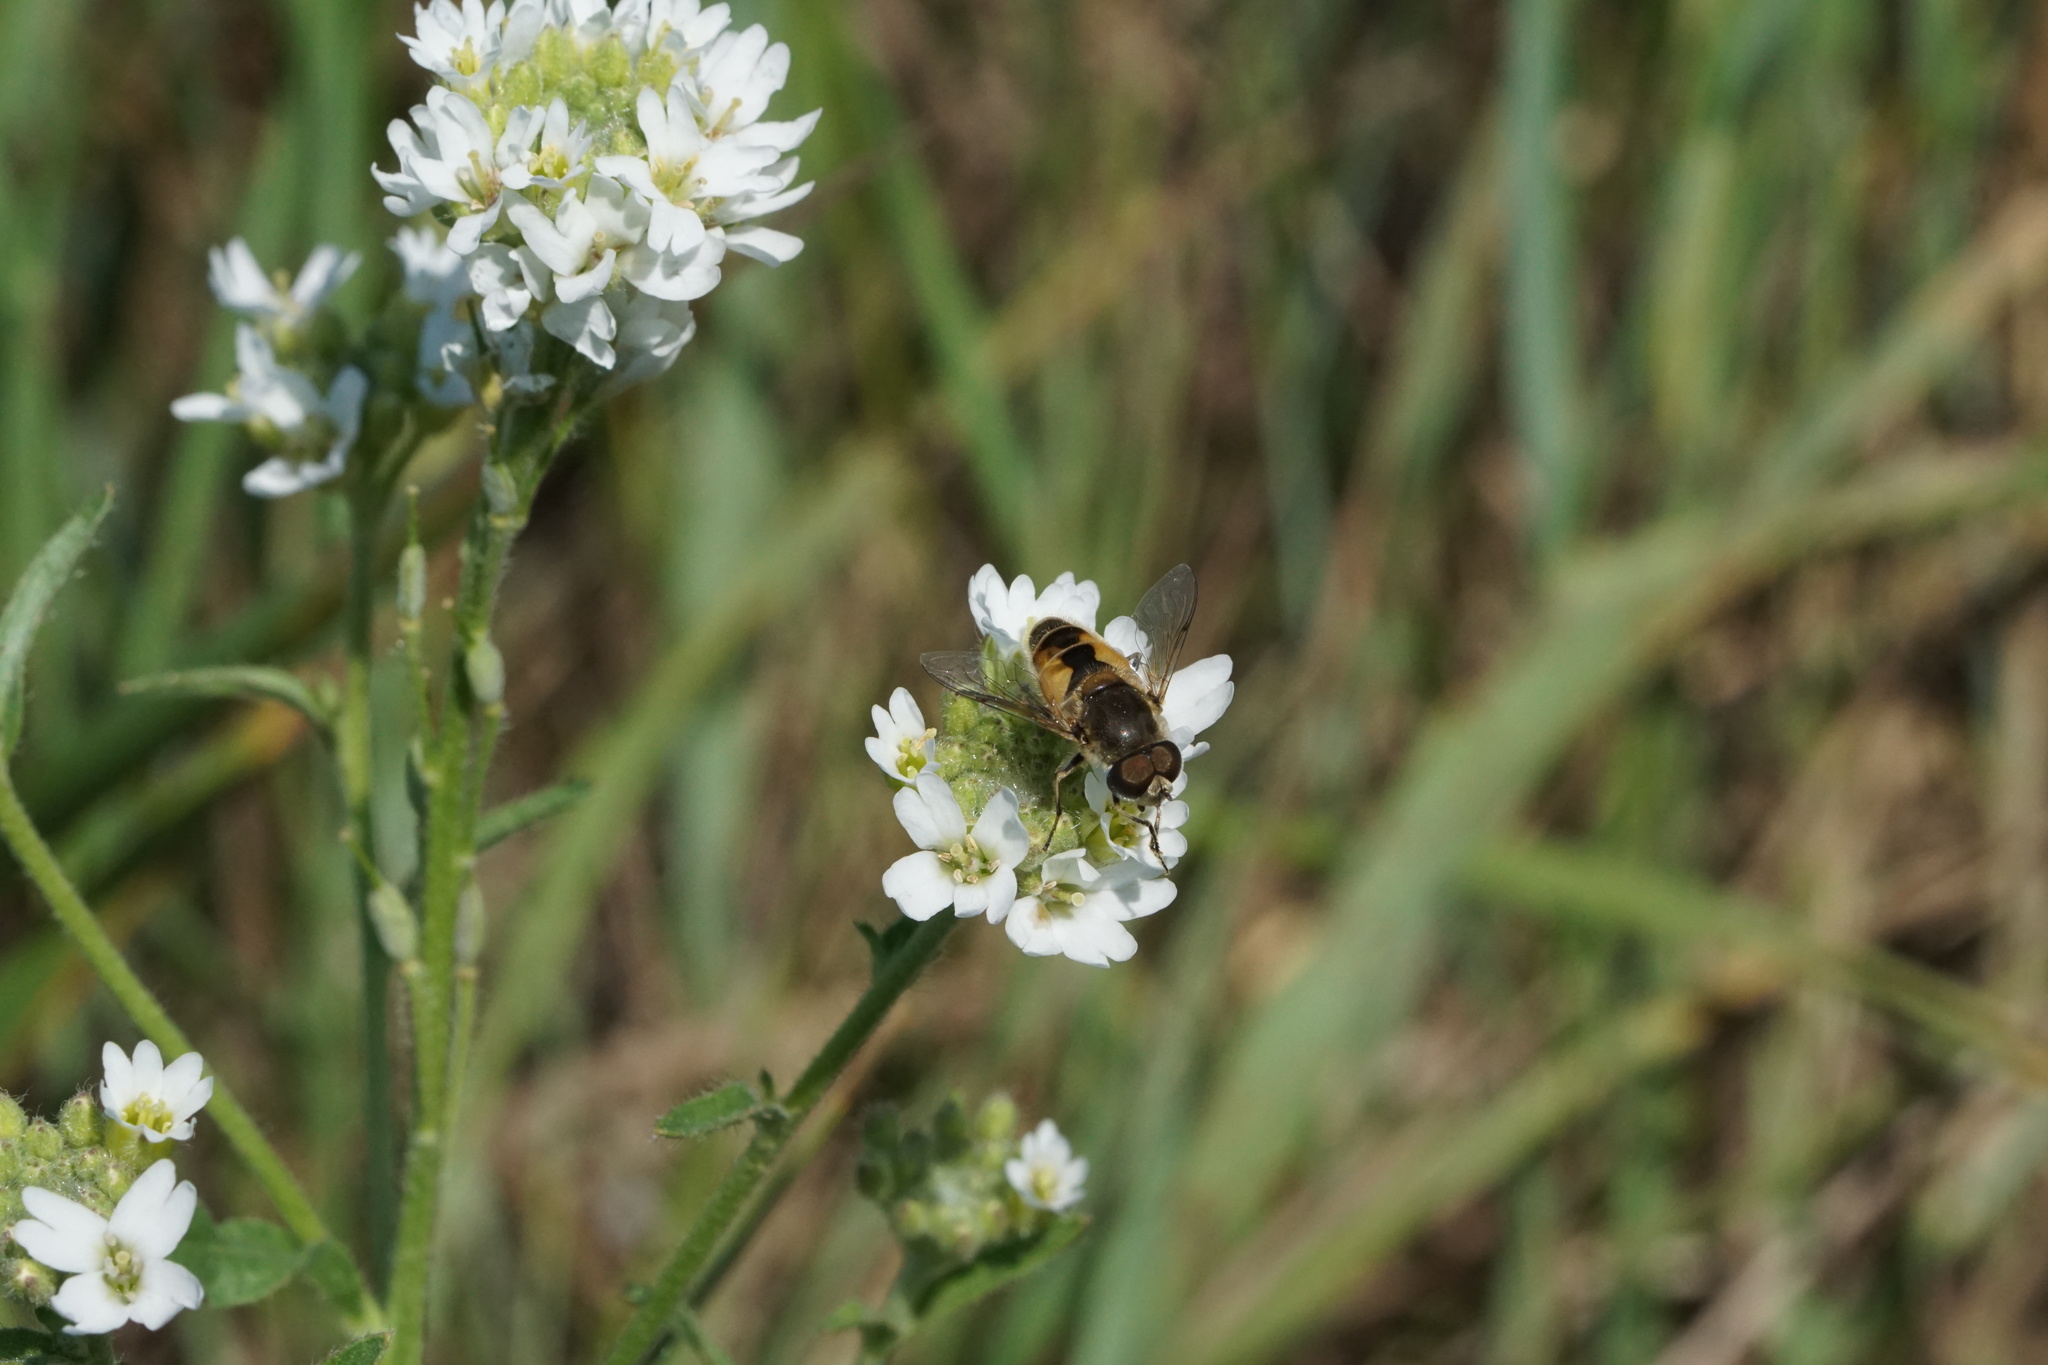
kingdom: Animalia
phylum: Arthropoda
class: Insecta
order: Diptera
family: Syrphidae
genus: Eristalis
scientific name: Eristalis arbustorum
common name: Hover fly
